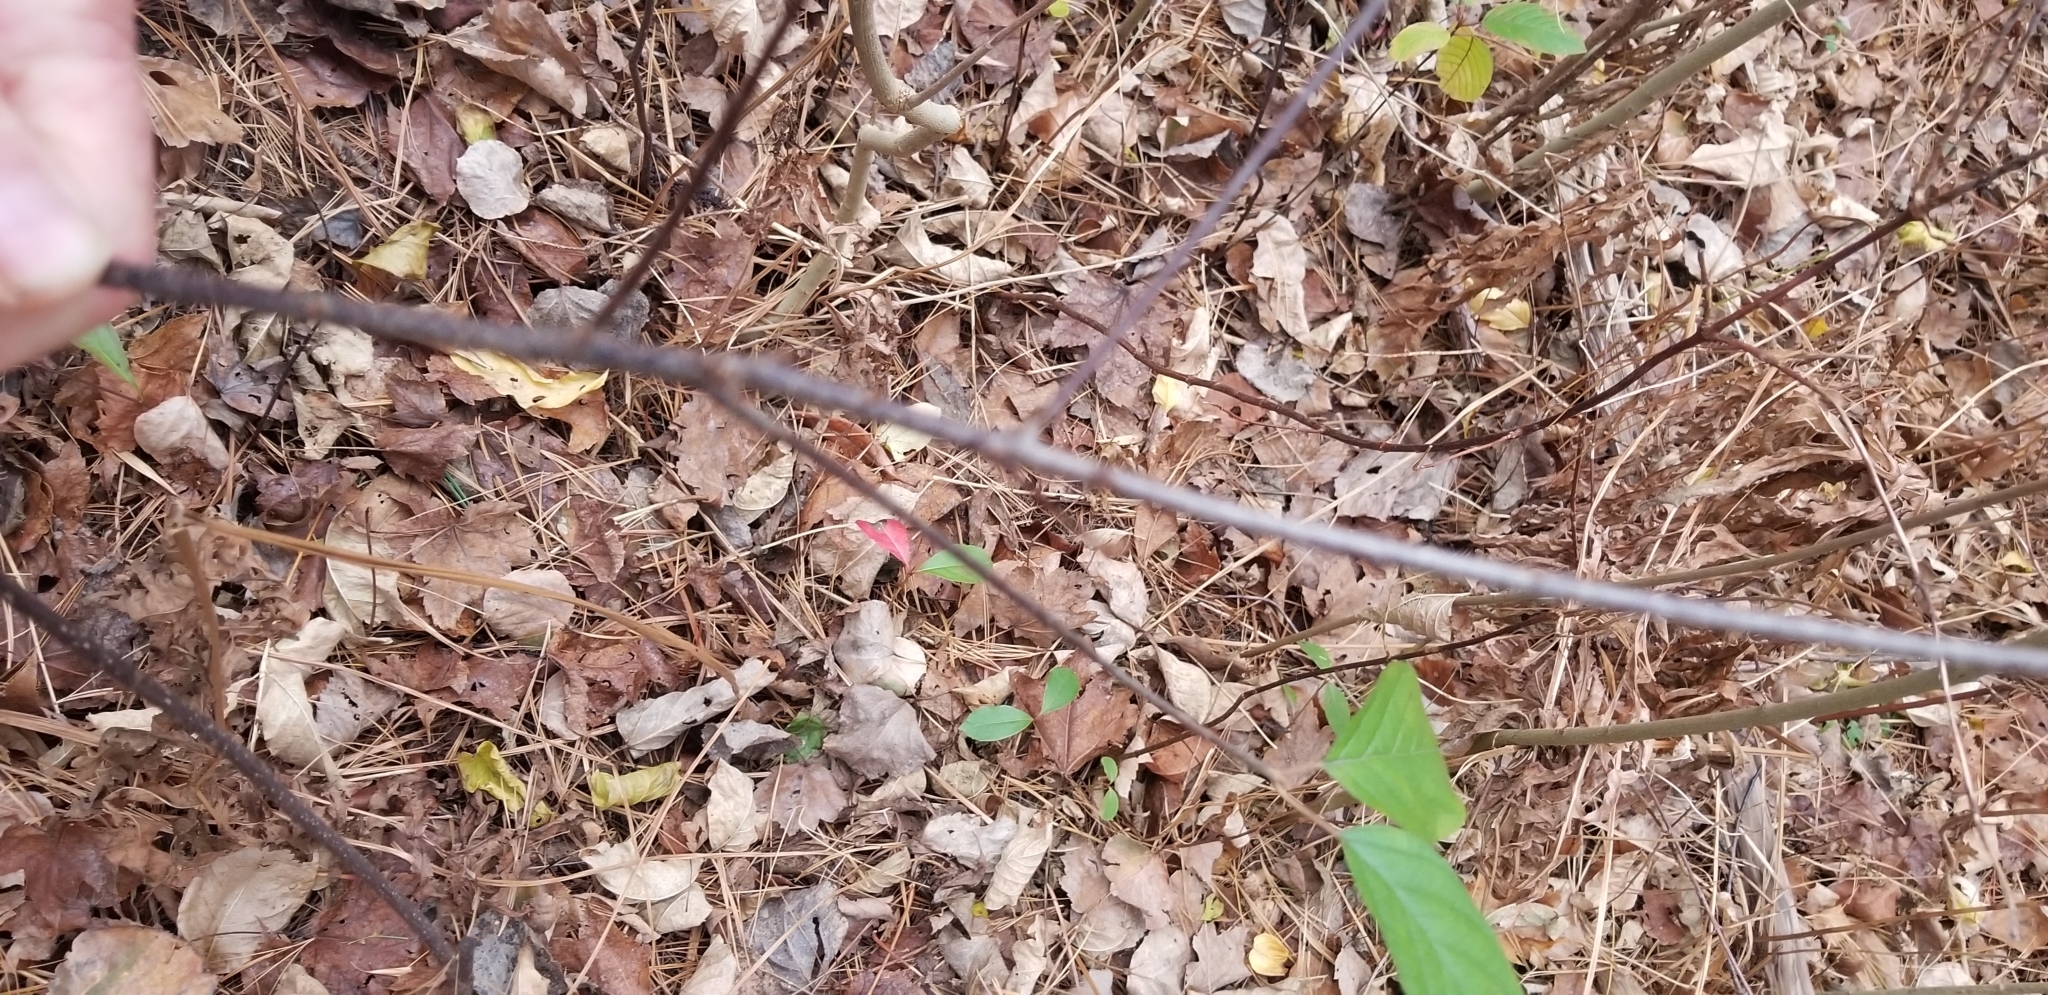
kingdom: Plantae
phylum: Tracheophyta
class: Magnoliopsida
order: Rosales
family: Rhamnaceae
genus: Frangula
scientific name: Frangula alnus
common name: Alder buckthorn
